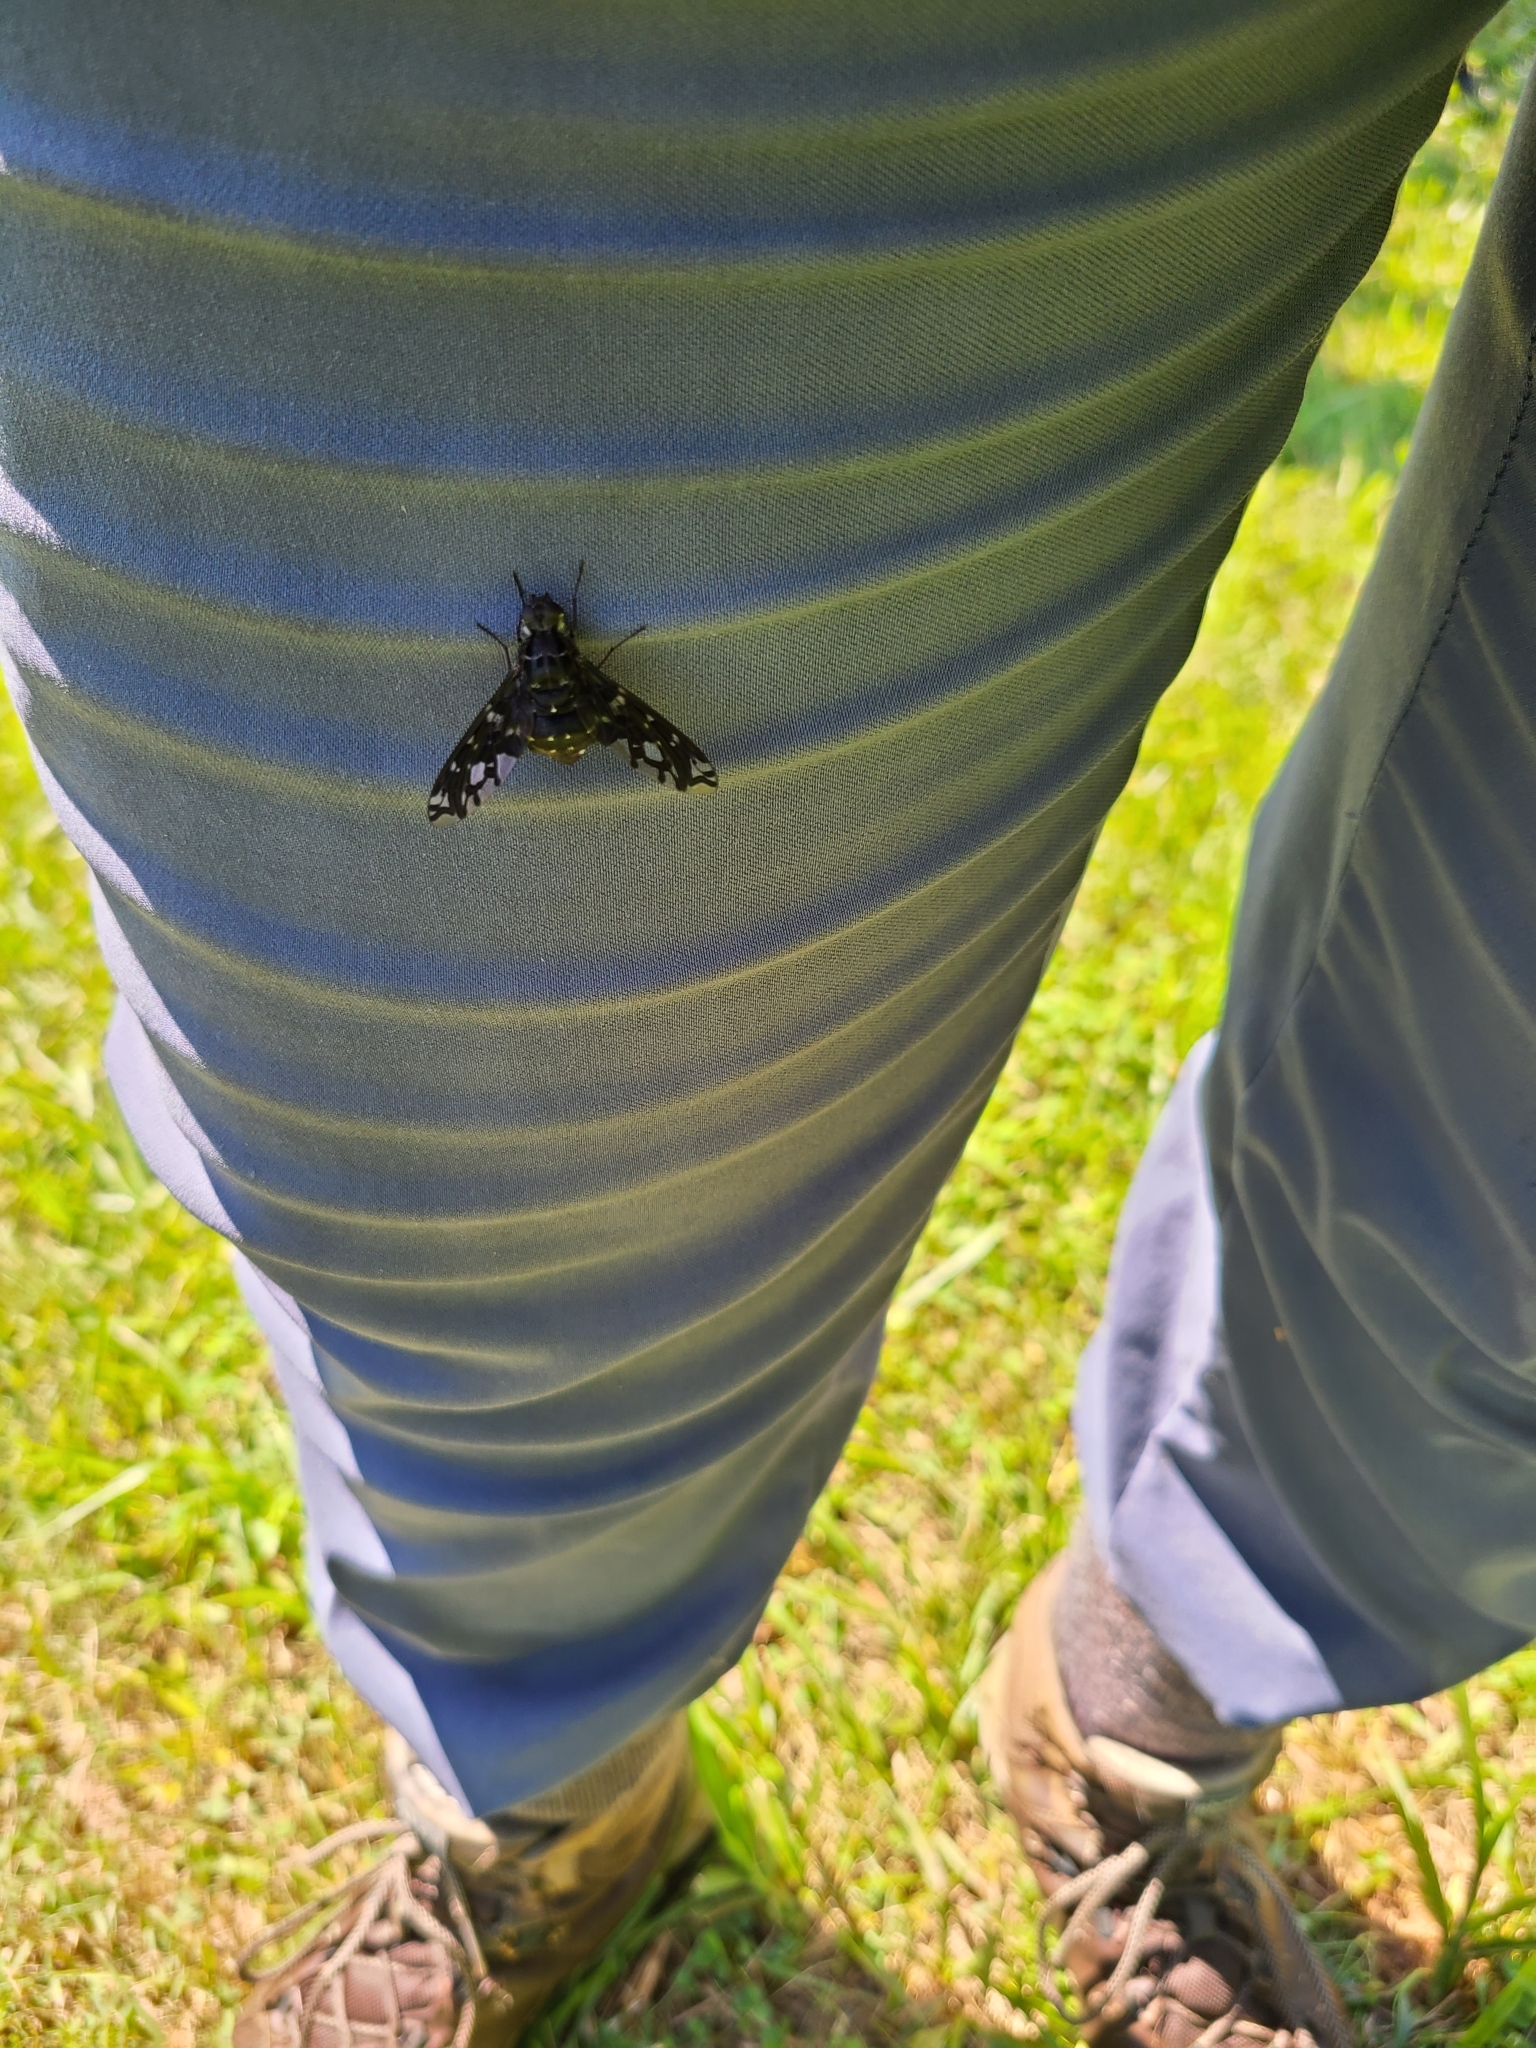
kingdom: Animalia
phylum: Arthropoda
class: Insecta
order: Diptera
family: Bombyliidae
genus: Xenox
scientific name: Xenox tigrinus
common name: Tiger bee fly
